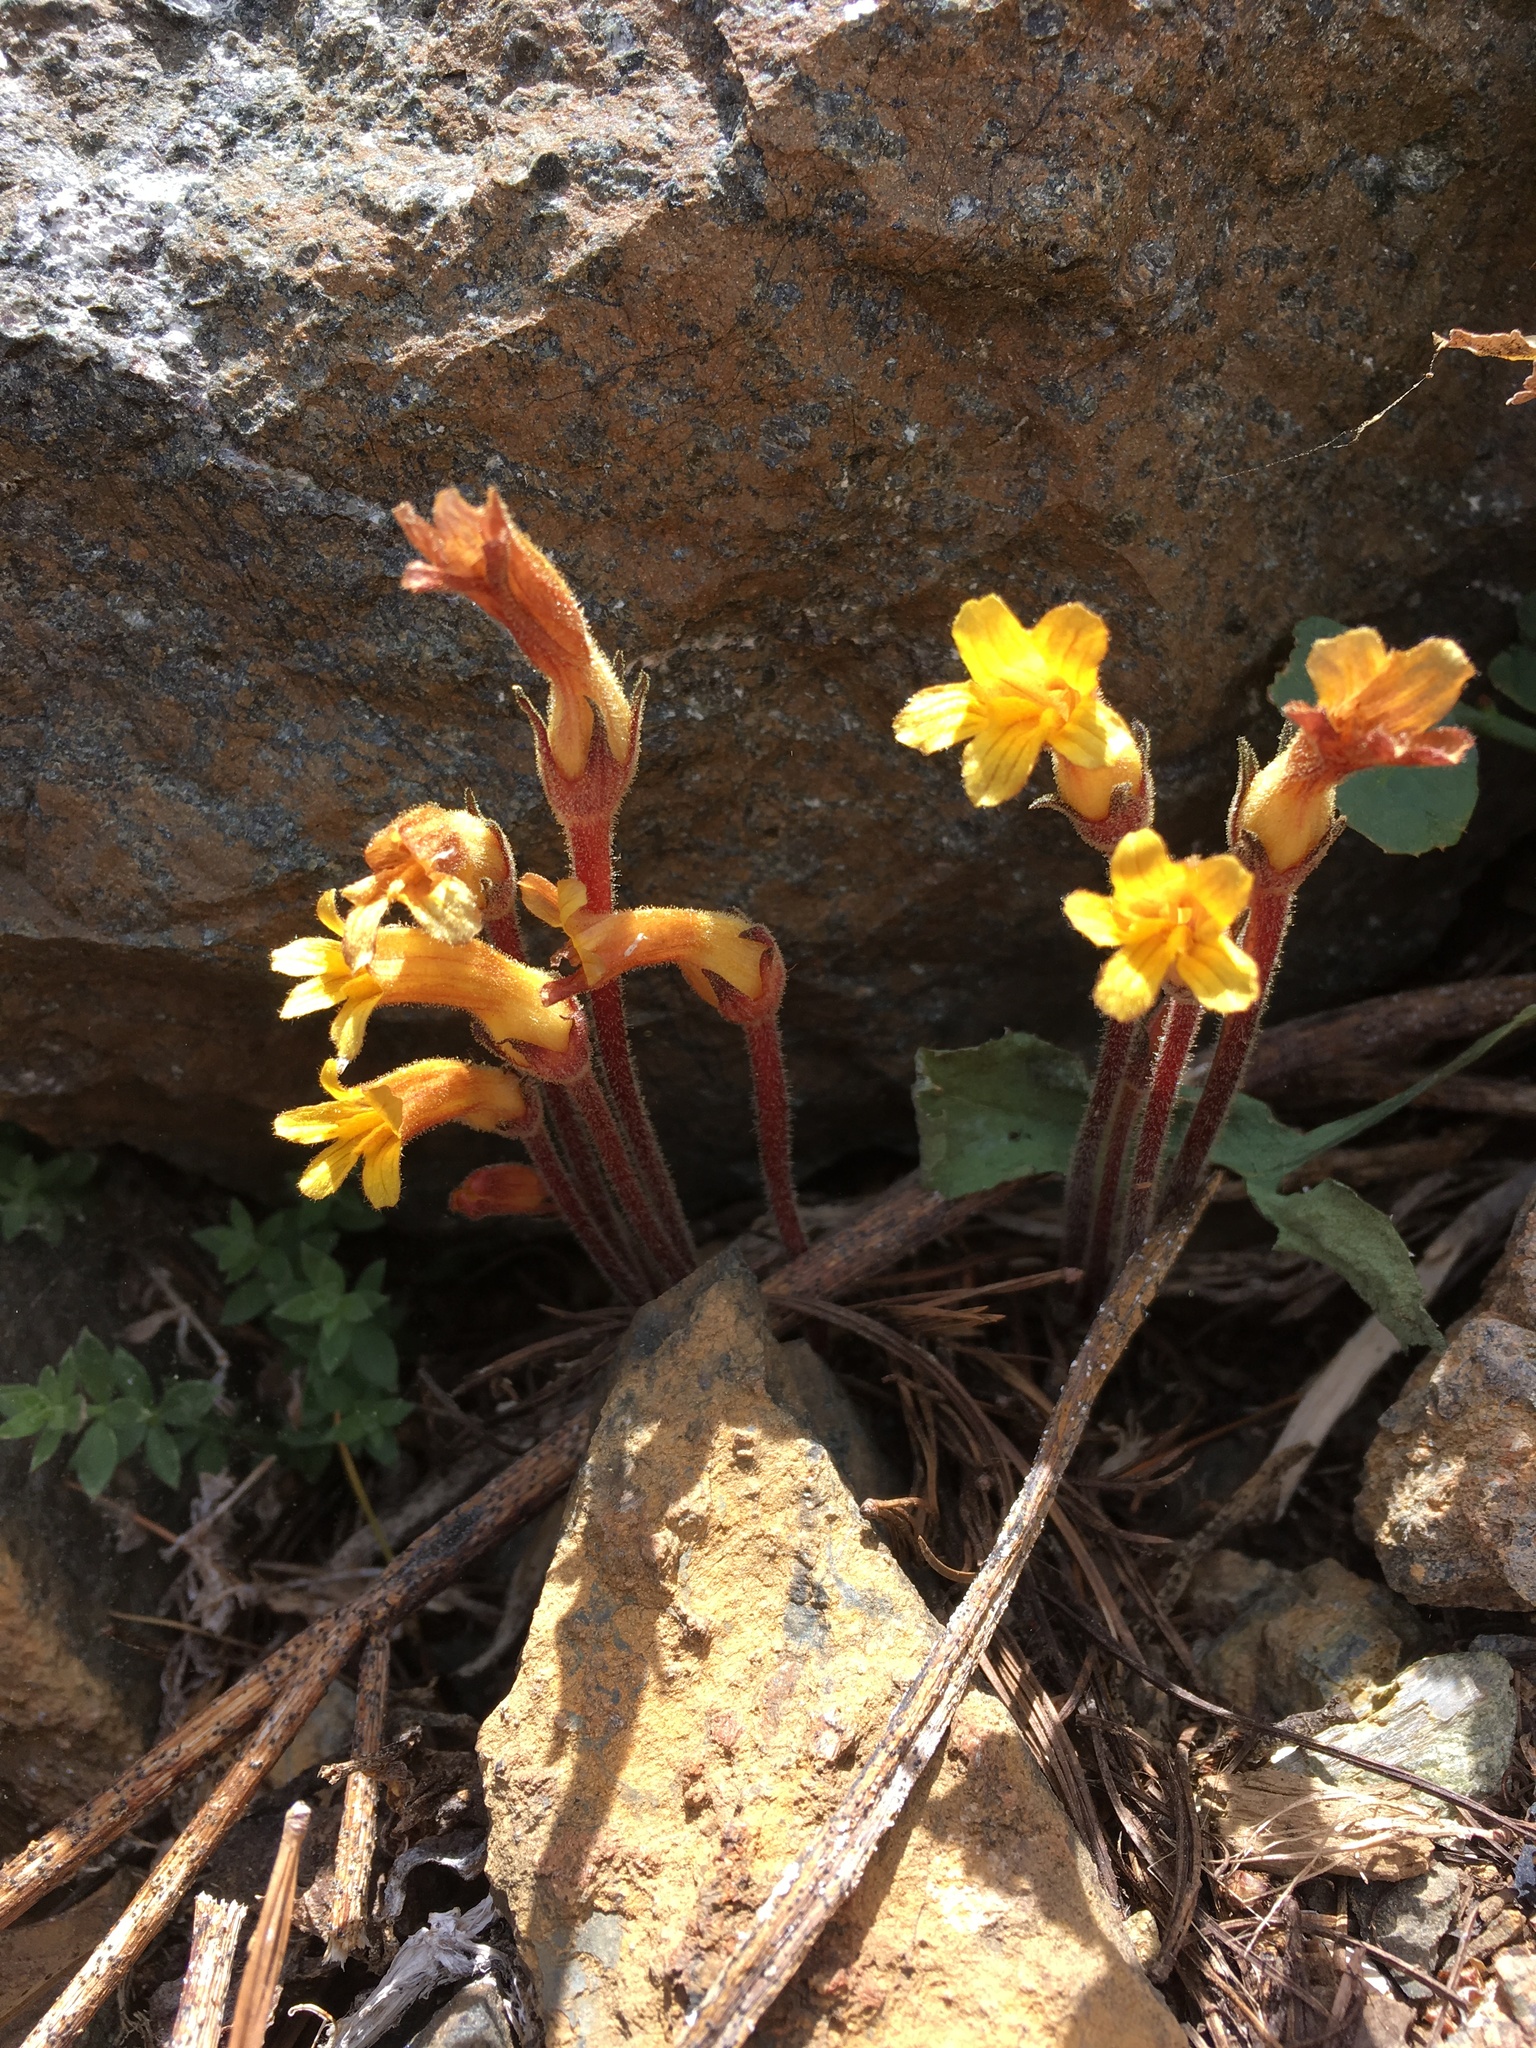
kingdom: Plantae
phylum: Tracheophyta
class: Magnoliopsida
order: Lamiales
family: Orobanchaceae
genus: Aphyllon
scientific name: Aphyllon epigalium
